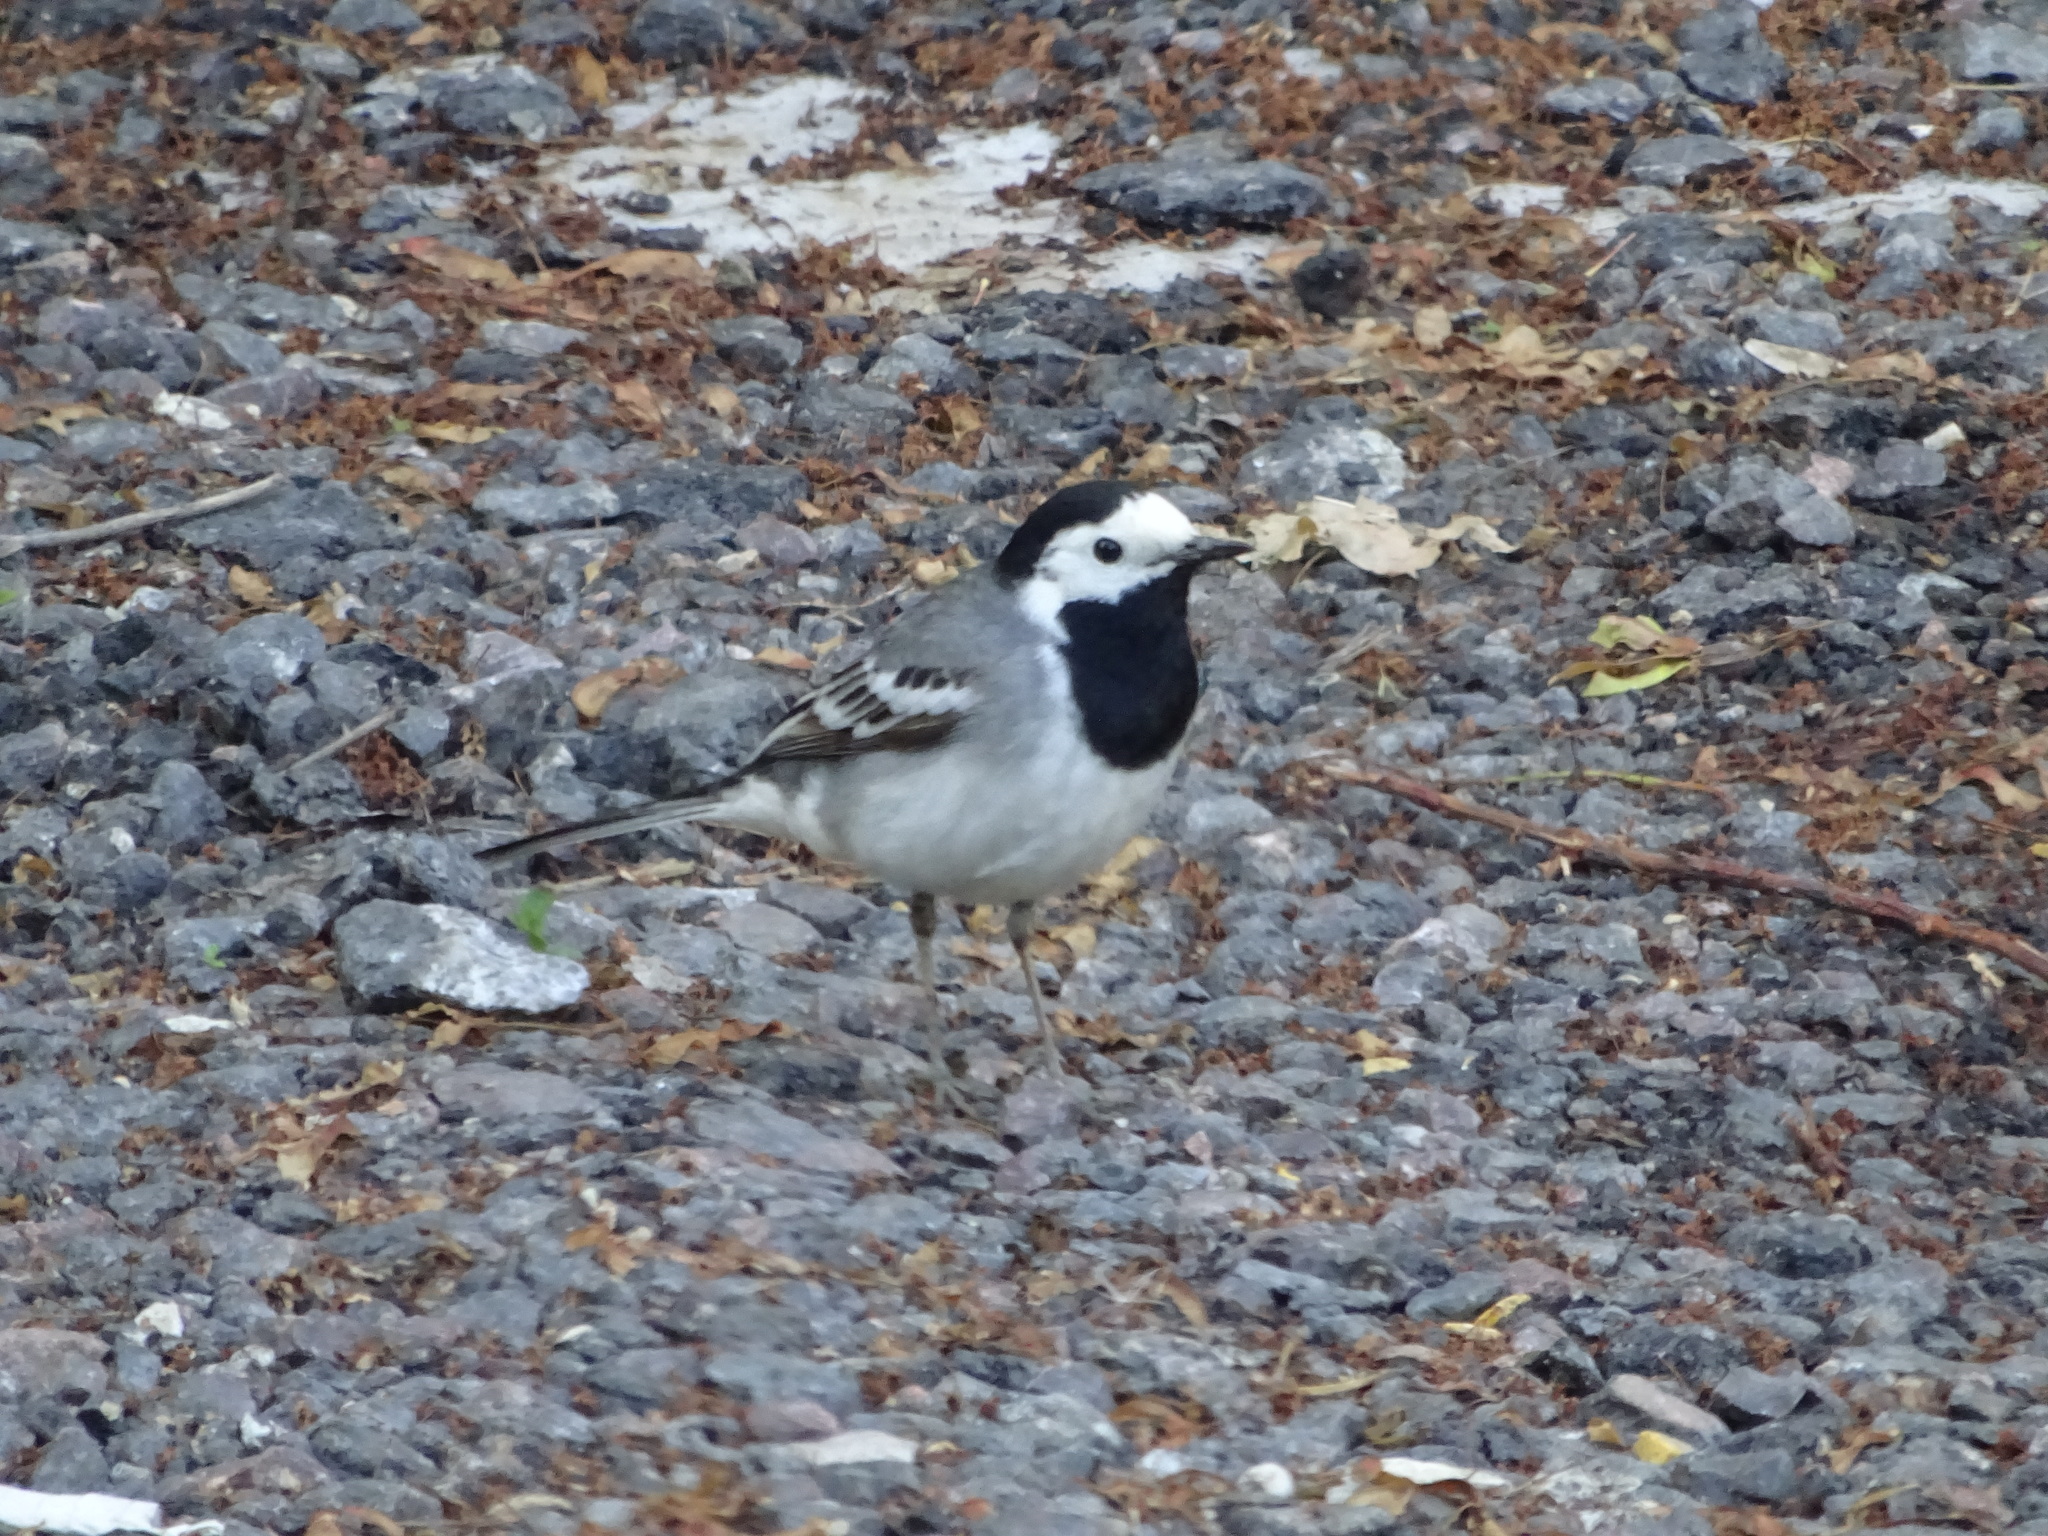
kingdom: Animalia
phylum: Chordata
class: Aves
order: Passeriformes
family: Motacillidae
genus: Motacilla
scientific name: Motacilla alba
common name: White wagtail
